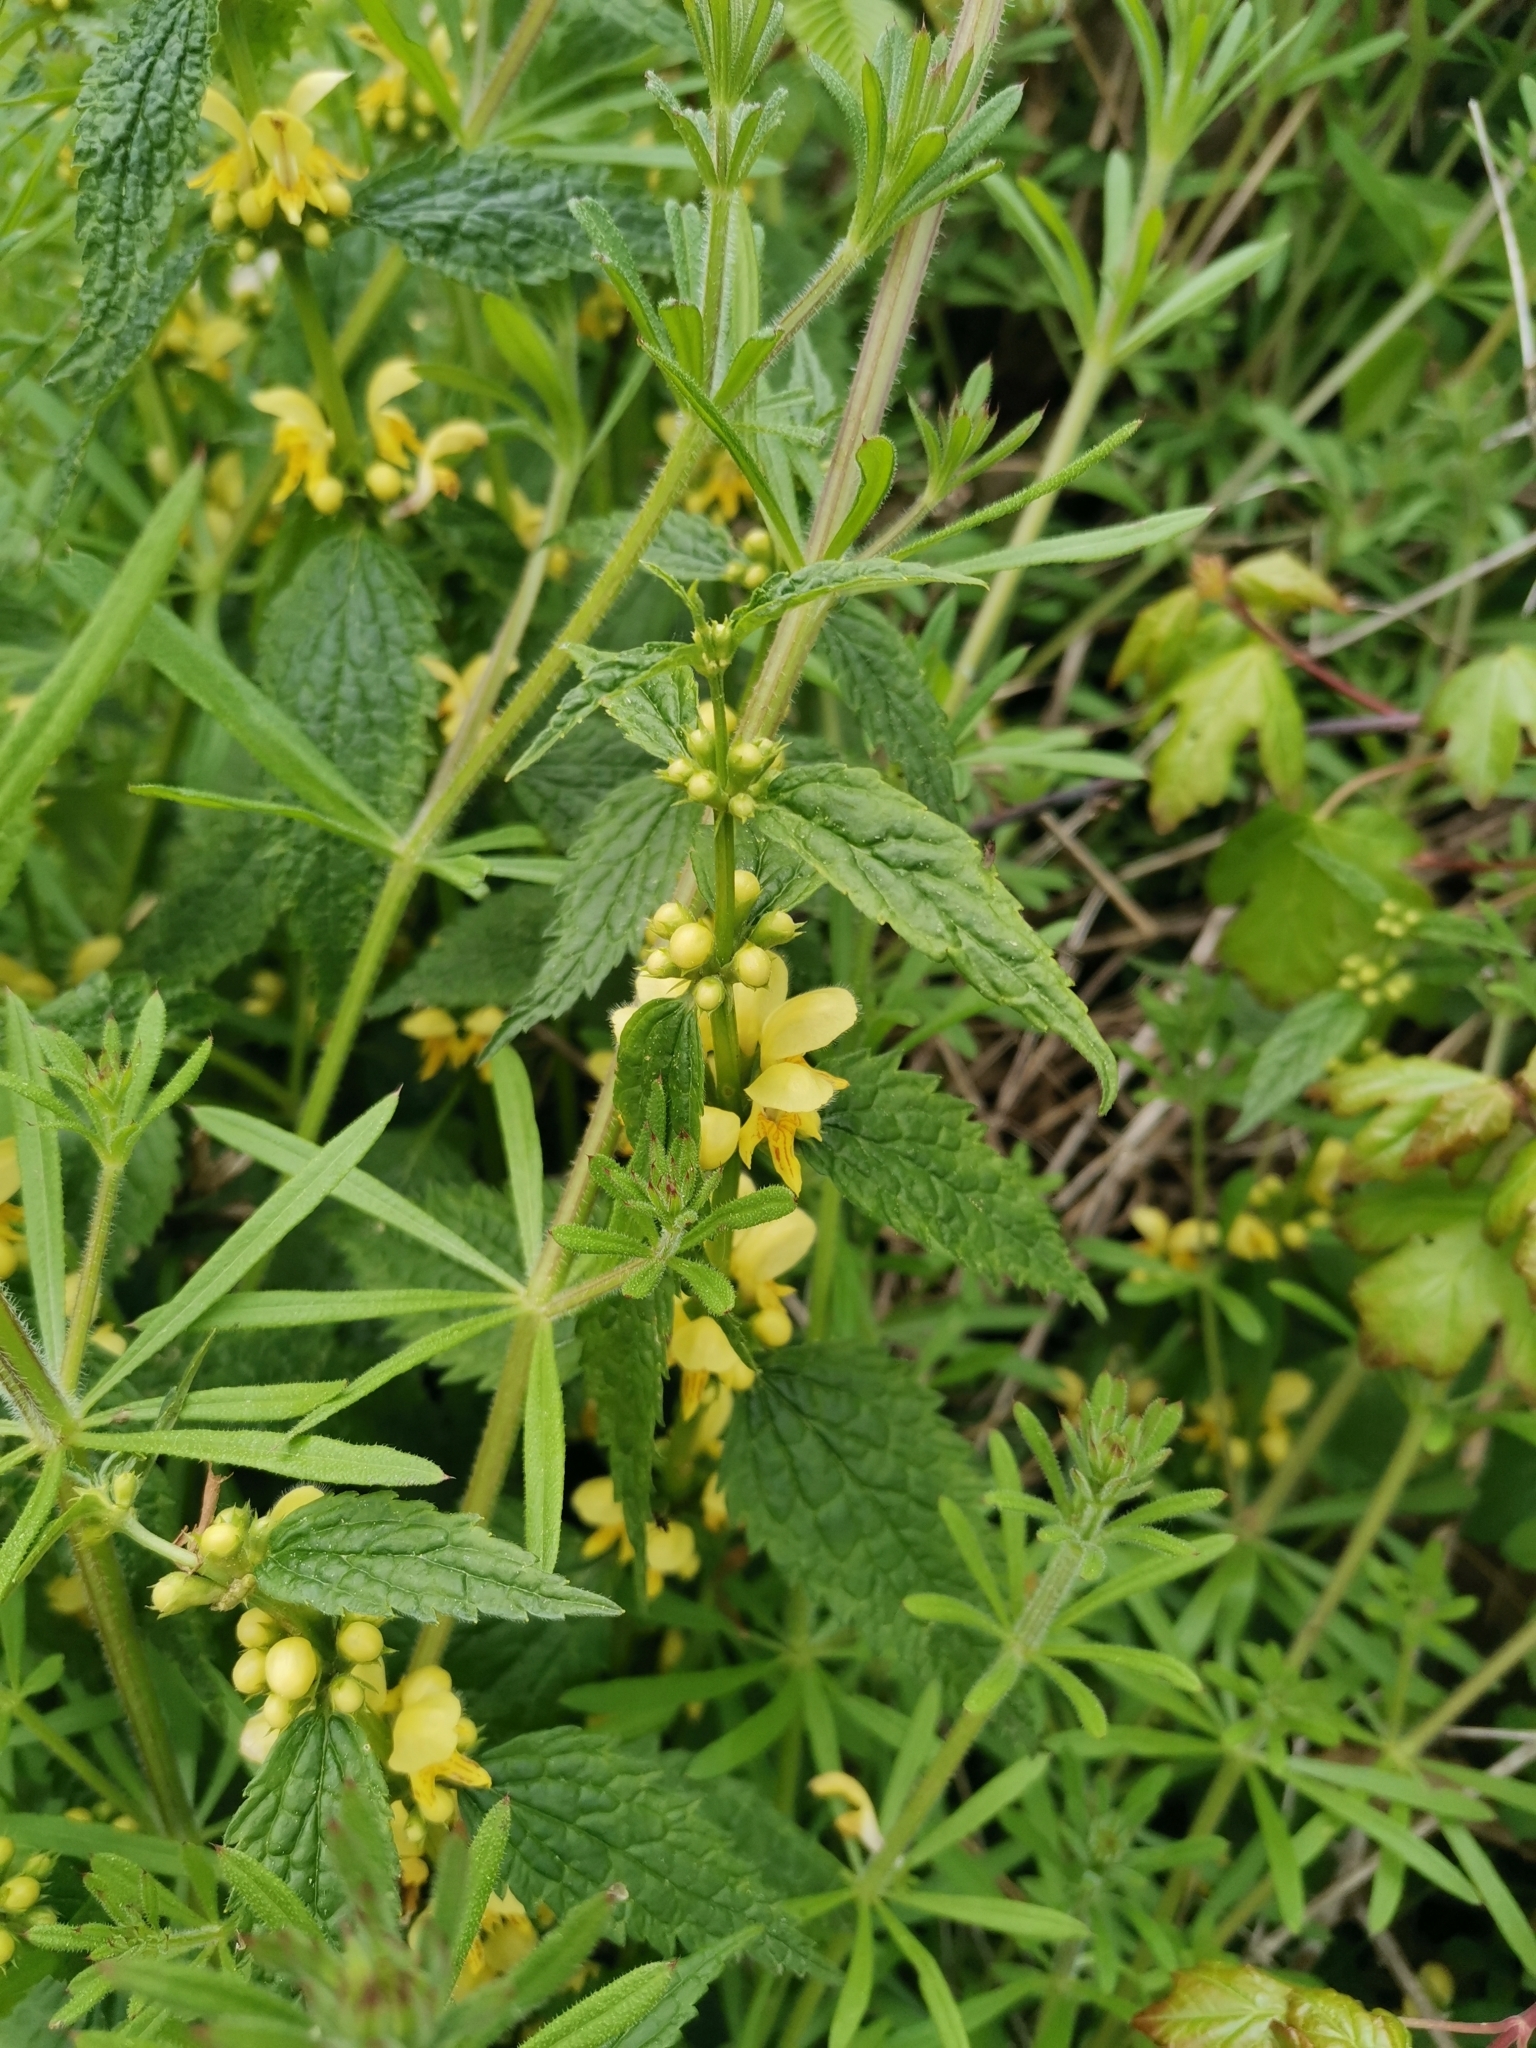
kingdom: Plantae
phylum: Tracheophyta
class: Magnoliopsida
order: Lamiales
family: Lamiaceae
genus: Lamium
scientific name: Lamium galeobdolon
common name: Yellow archangel
